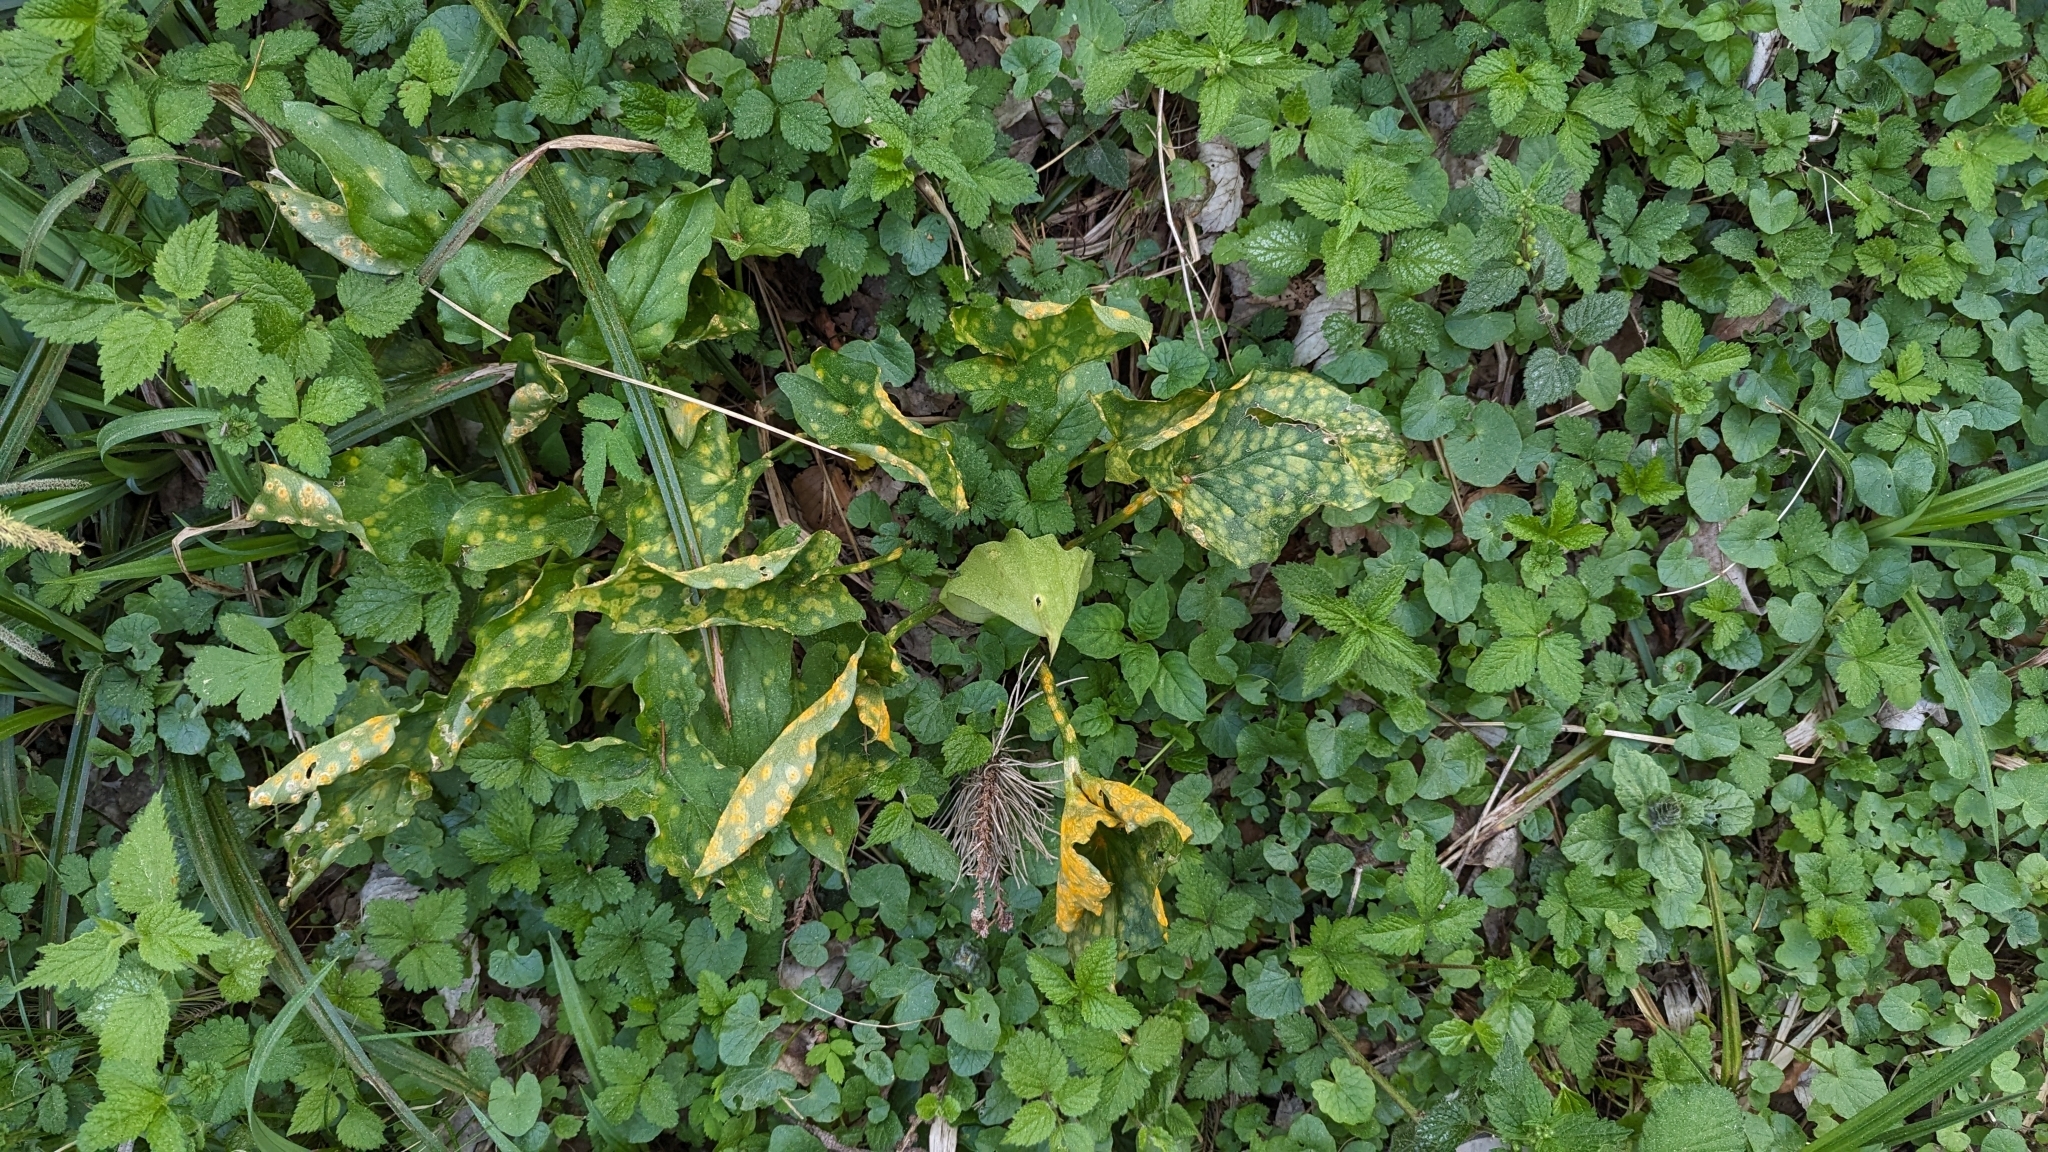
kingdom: Plantae
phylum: Tracheophyta
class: Liliopsida
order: Alismatales
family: Araceae
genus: Arum
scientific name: Arum maculatum
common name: Lords-and-ladies
